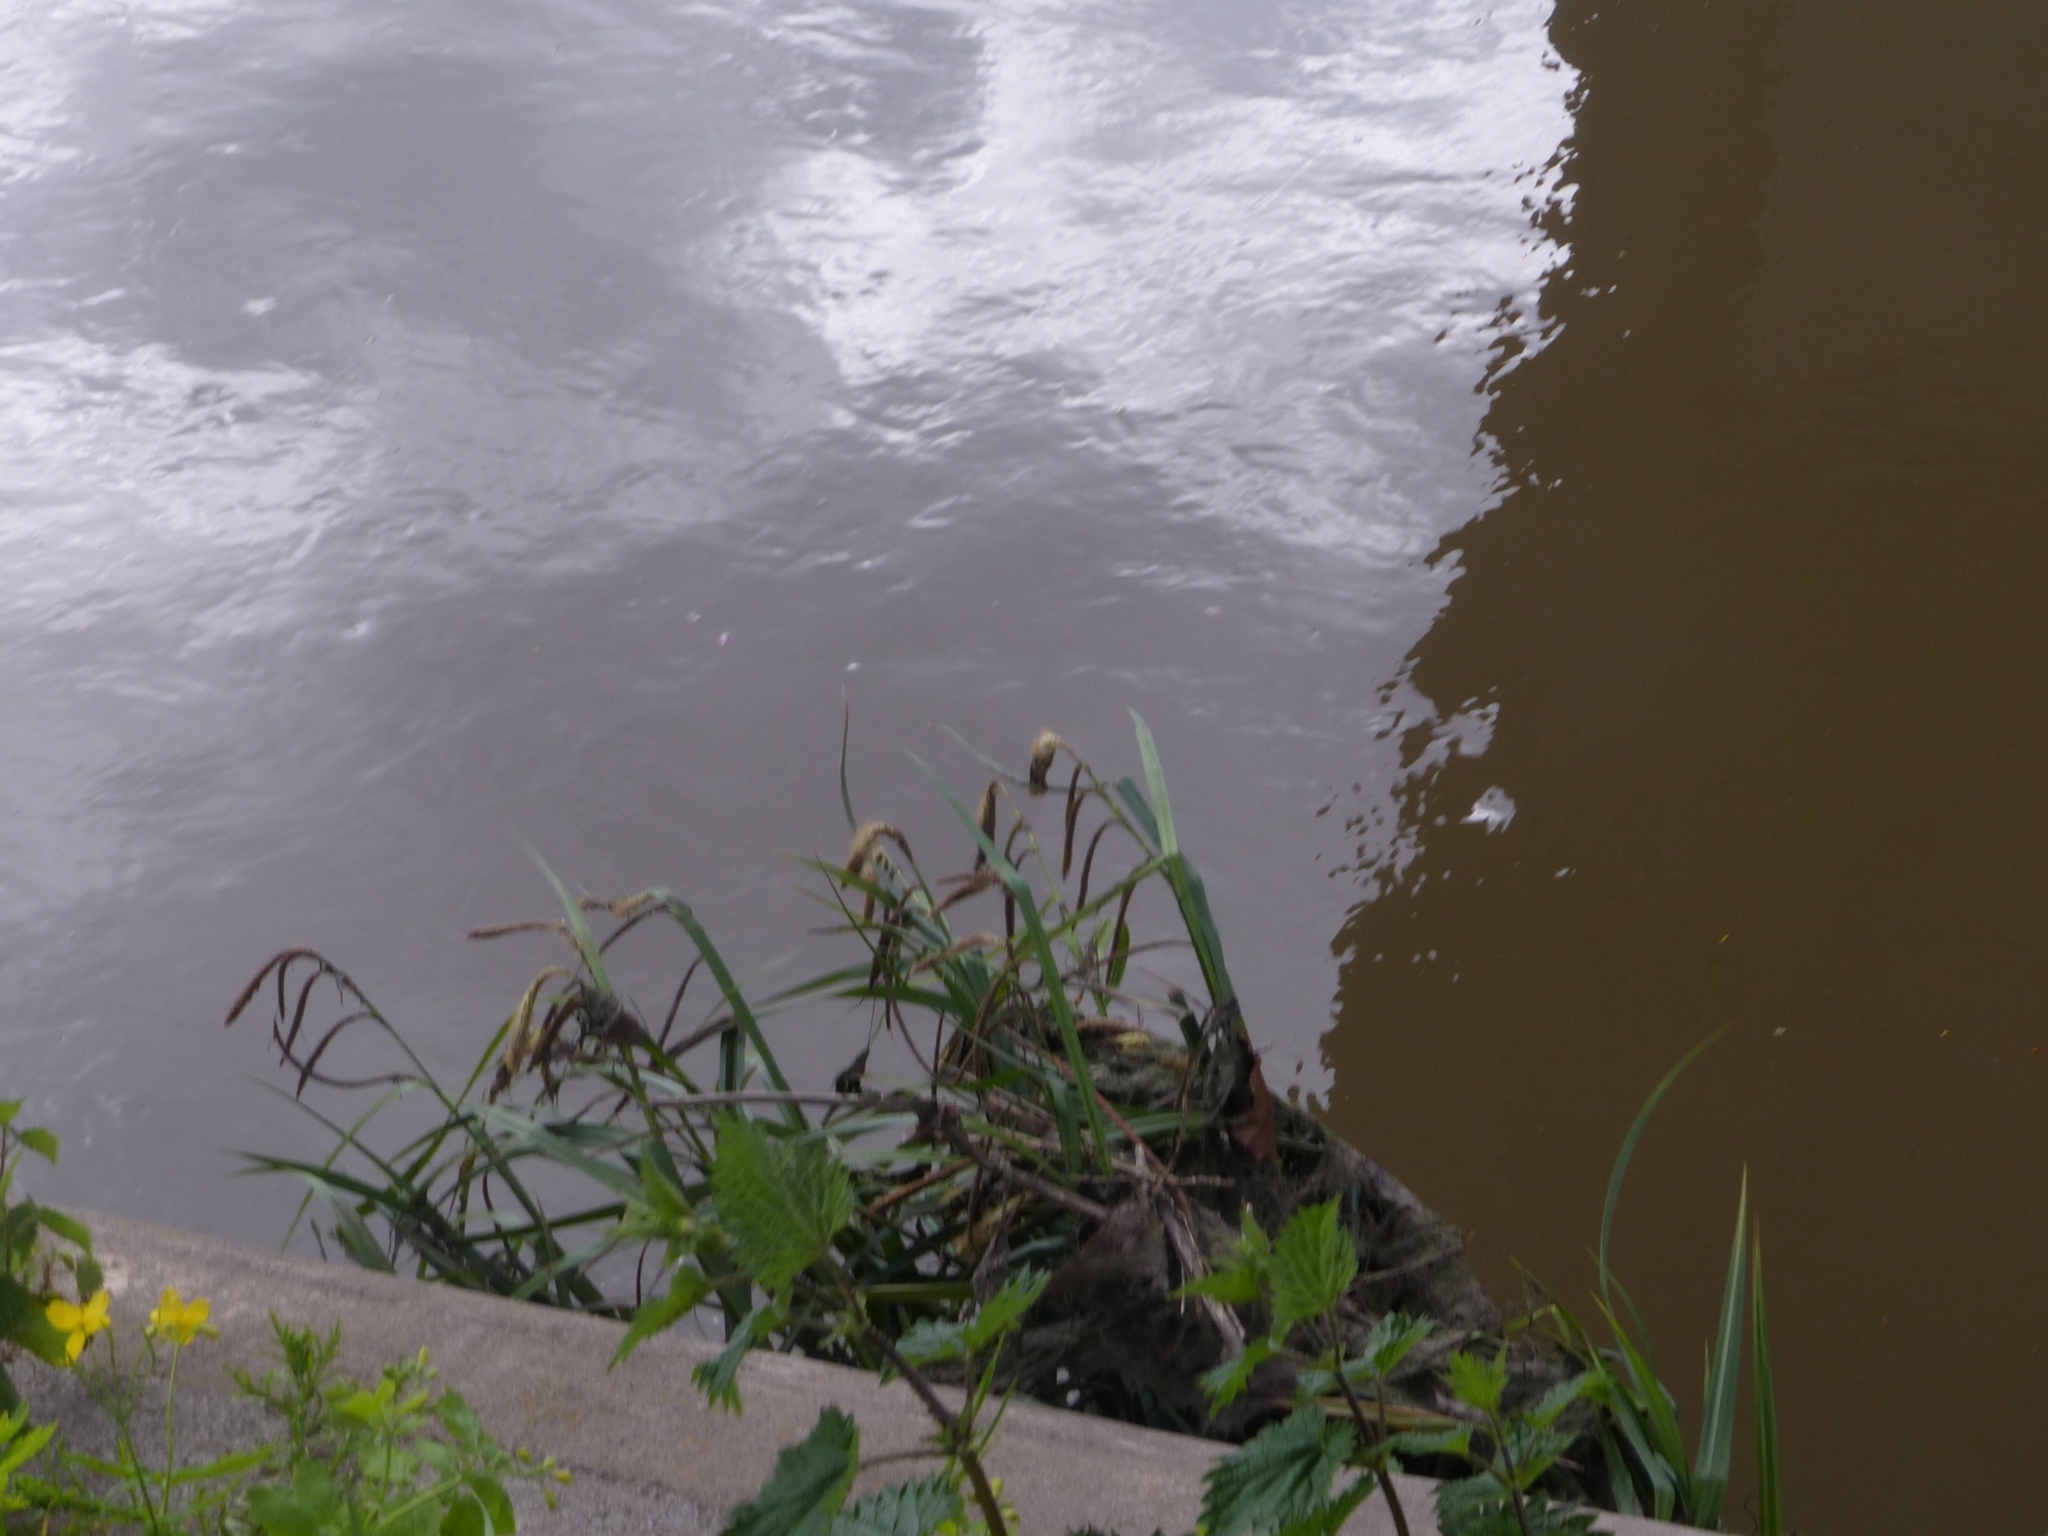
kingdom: Plantae
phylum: Tracheophyta
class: Liliopsida
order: Poales
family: Cyperaceae
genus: Carex
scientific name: Carex pendula
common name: Pendulous sedge
